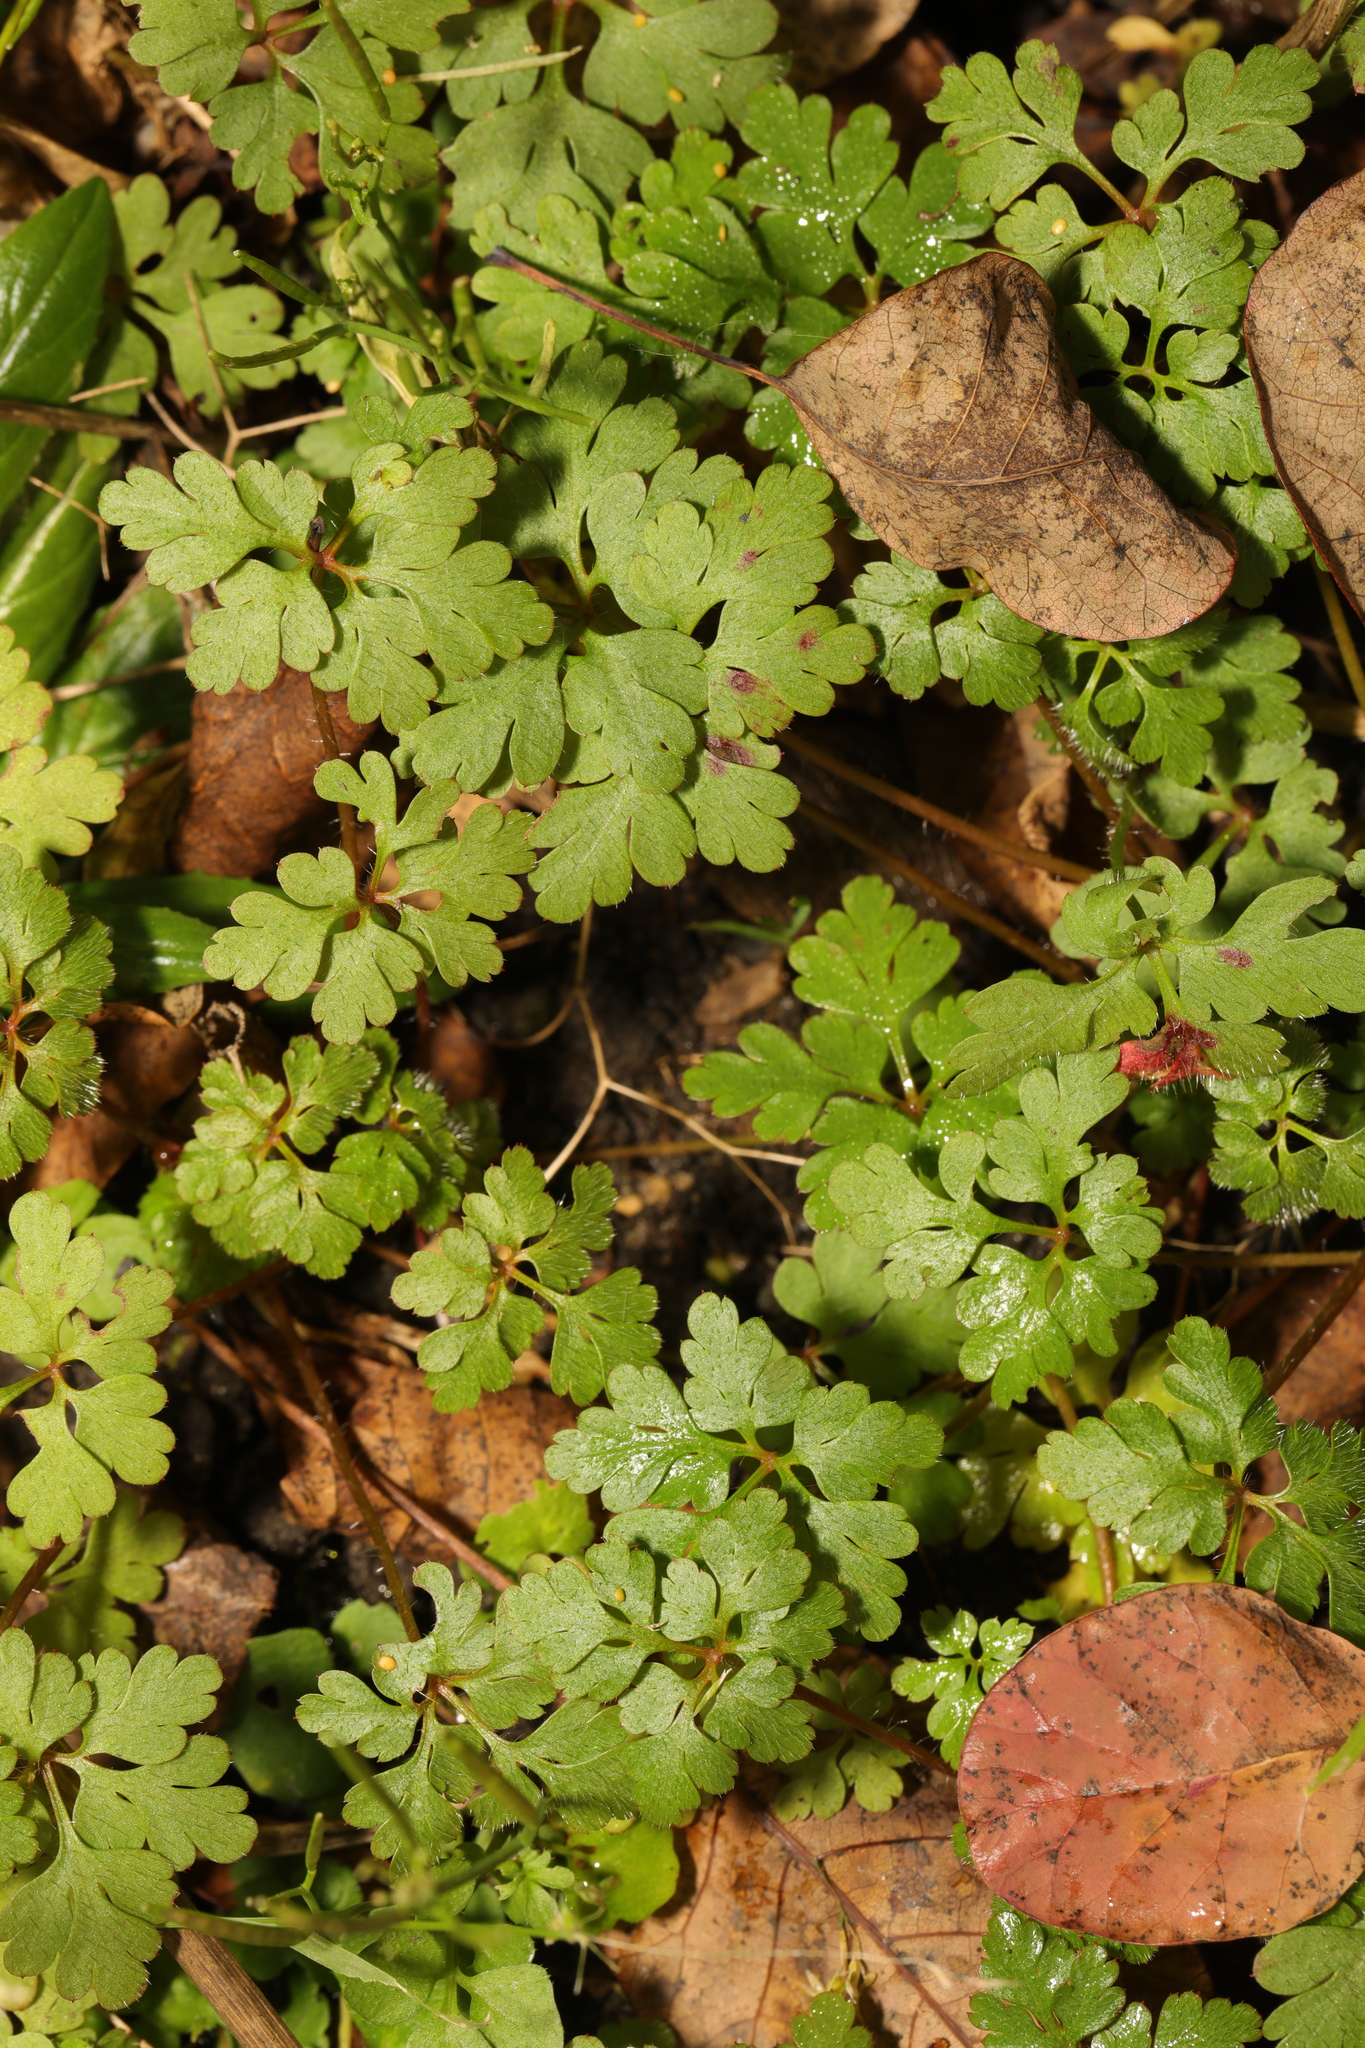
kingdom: Plantae
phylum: Tracheophyta
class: Magnoliopsida
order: Geraniales
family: Geraniaceae
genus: Geranium
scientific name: Geranium robertianum
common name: Herb-robert
